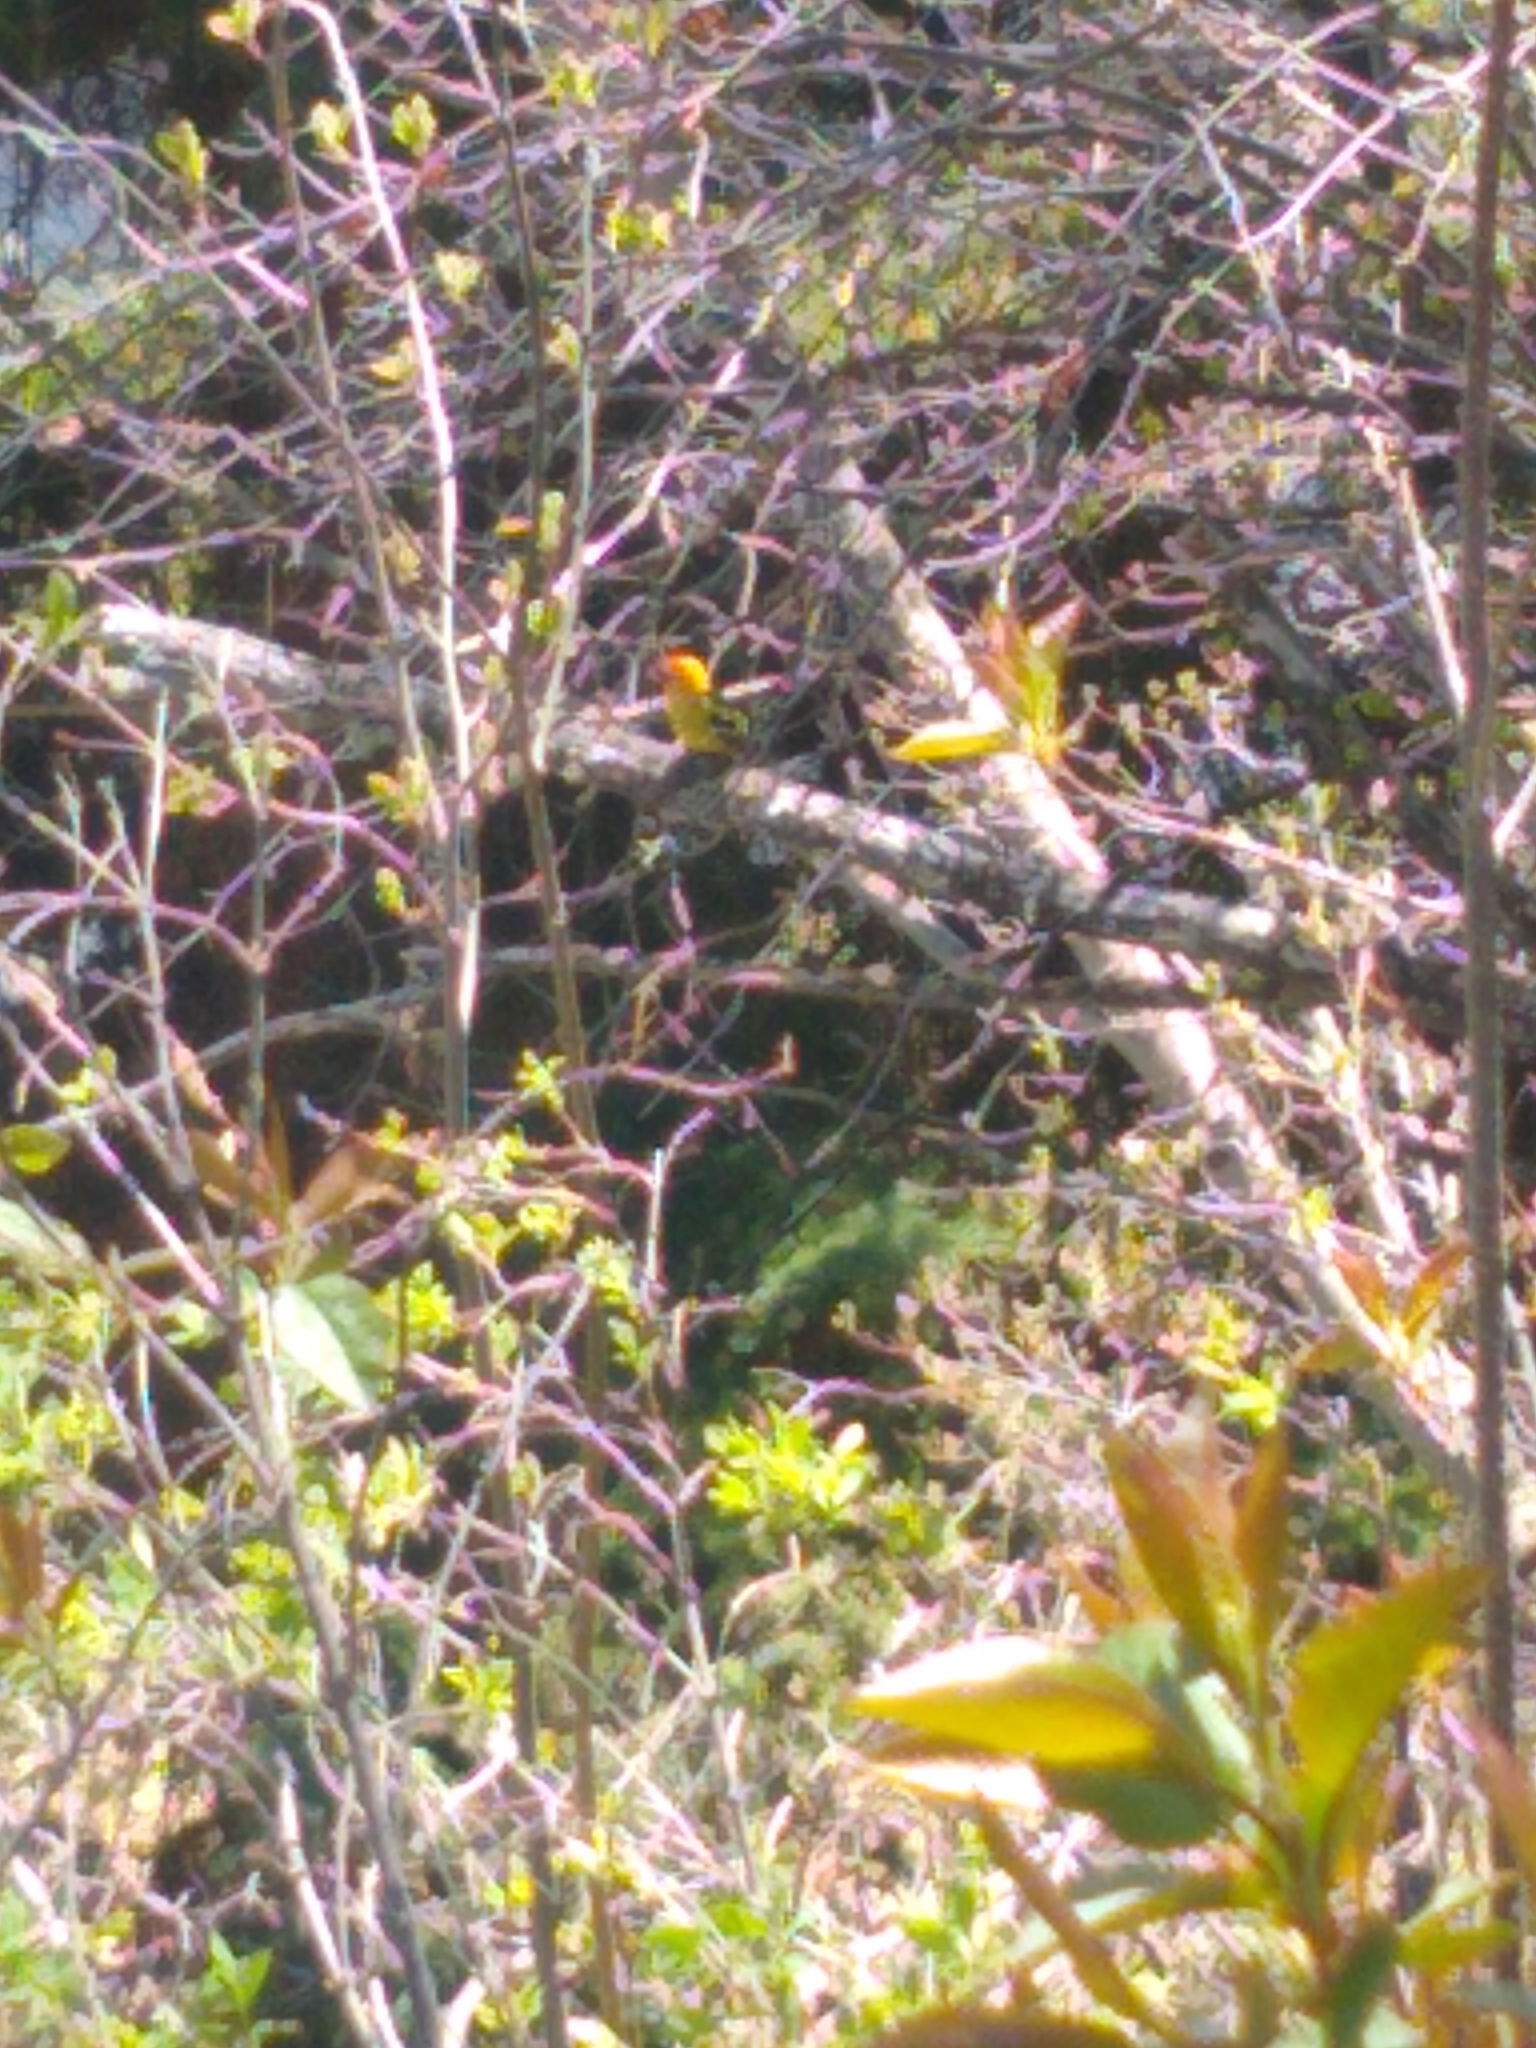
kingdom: Animalia
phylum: Chordata
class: Aves
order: Passeriformes
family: Cardinalidae
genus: Piranga
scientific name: Piranga ludoviciana
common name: Western tanager
